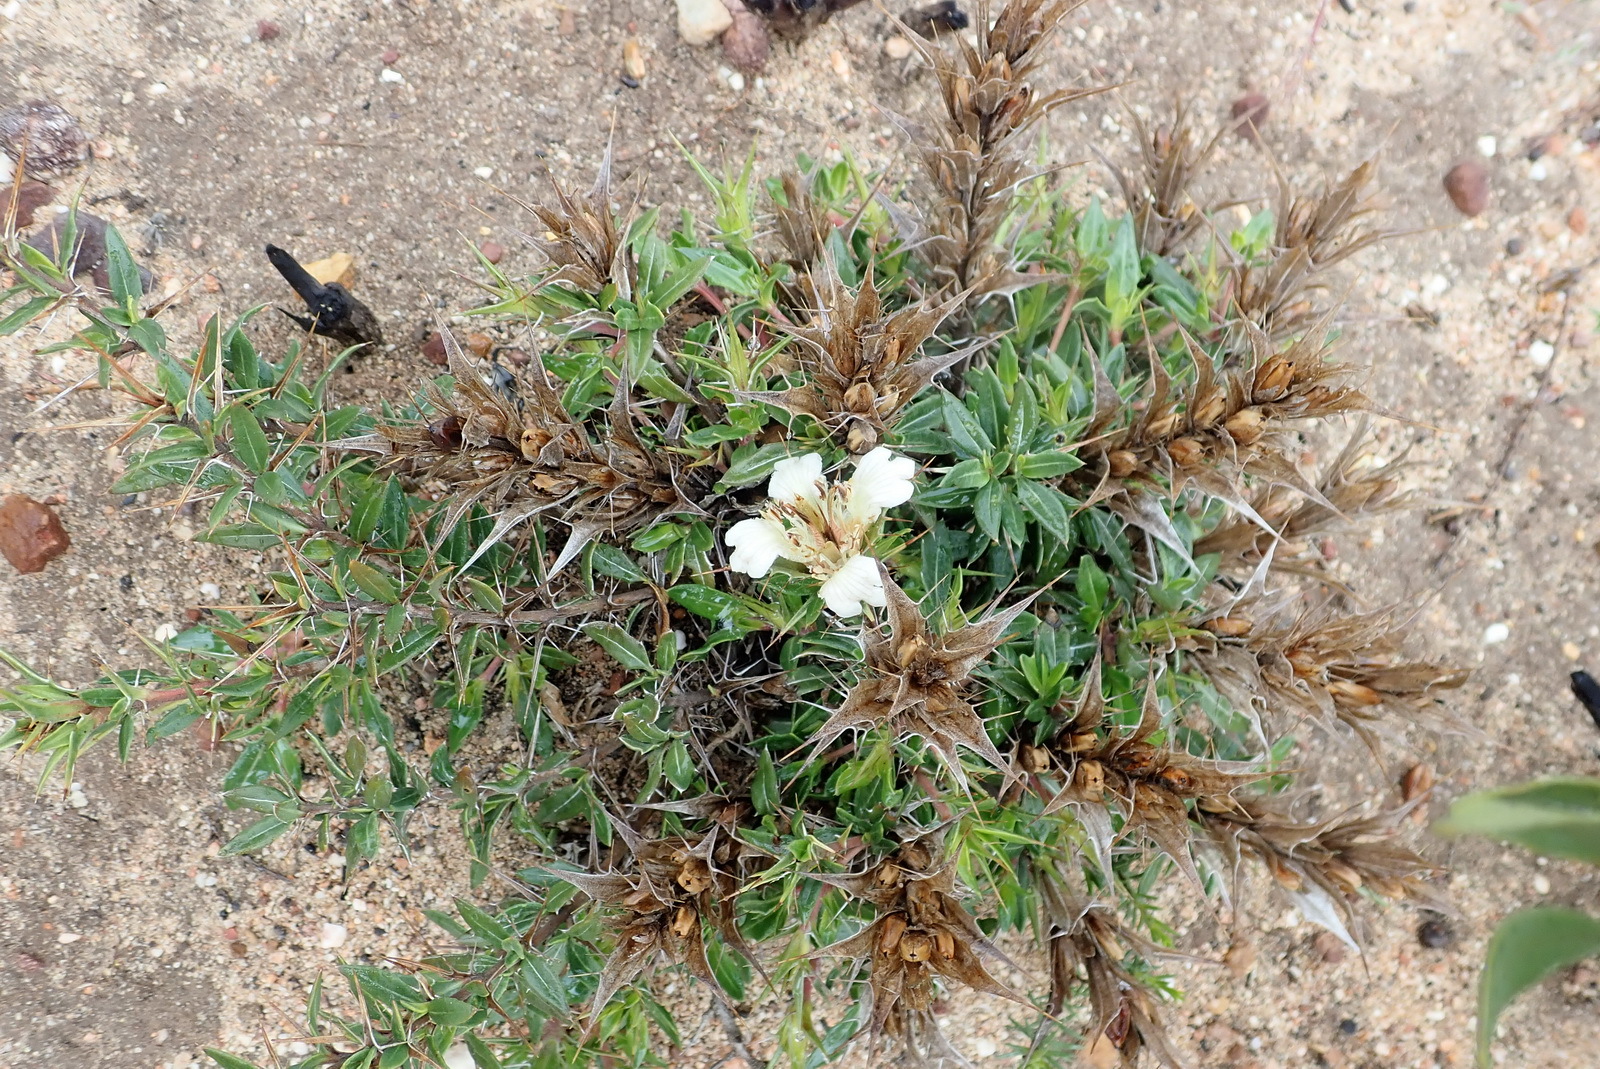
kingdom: Plantae
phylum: Tracheophyta
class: Magnoliopsida
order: Lamiales
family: Acanthaceae
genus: Blepharis
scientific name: Blepharis capensis
